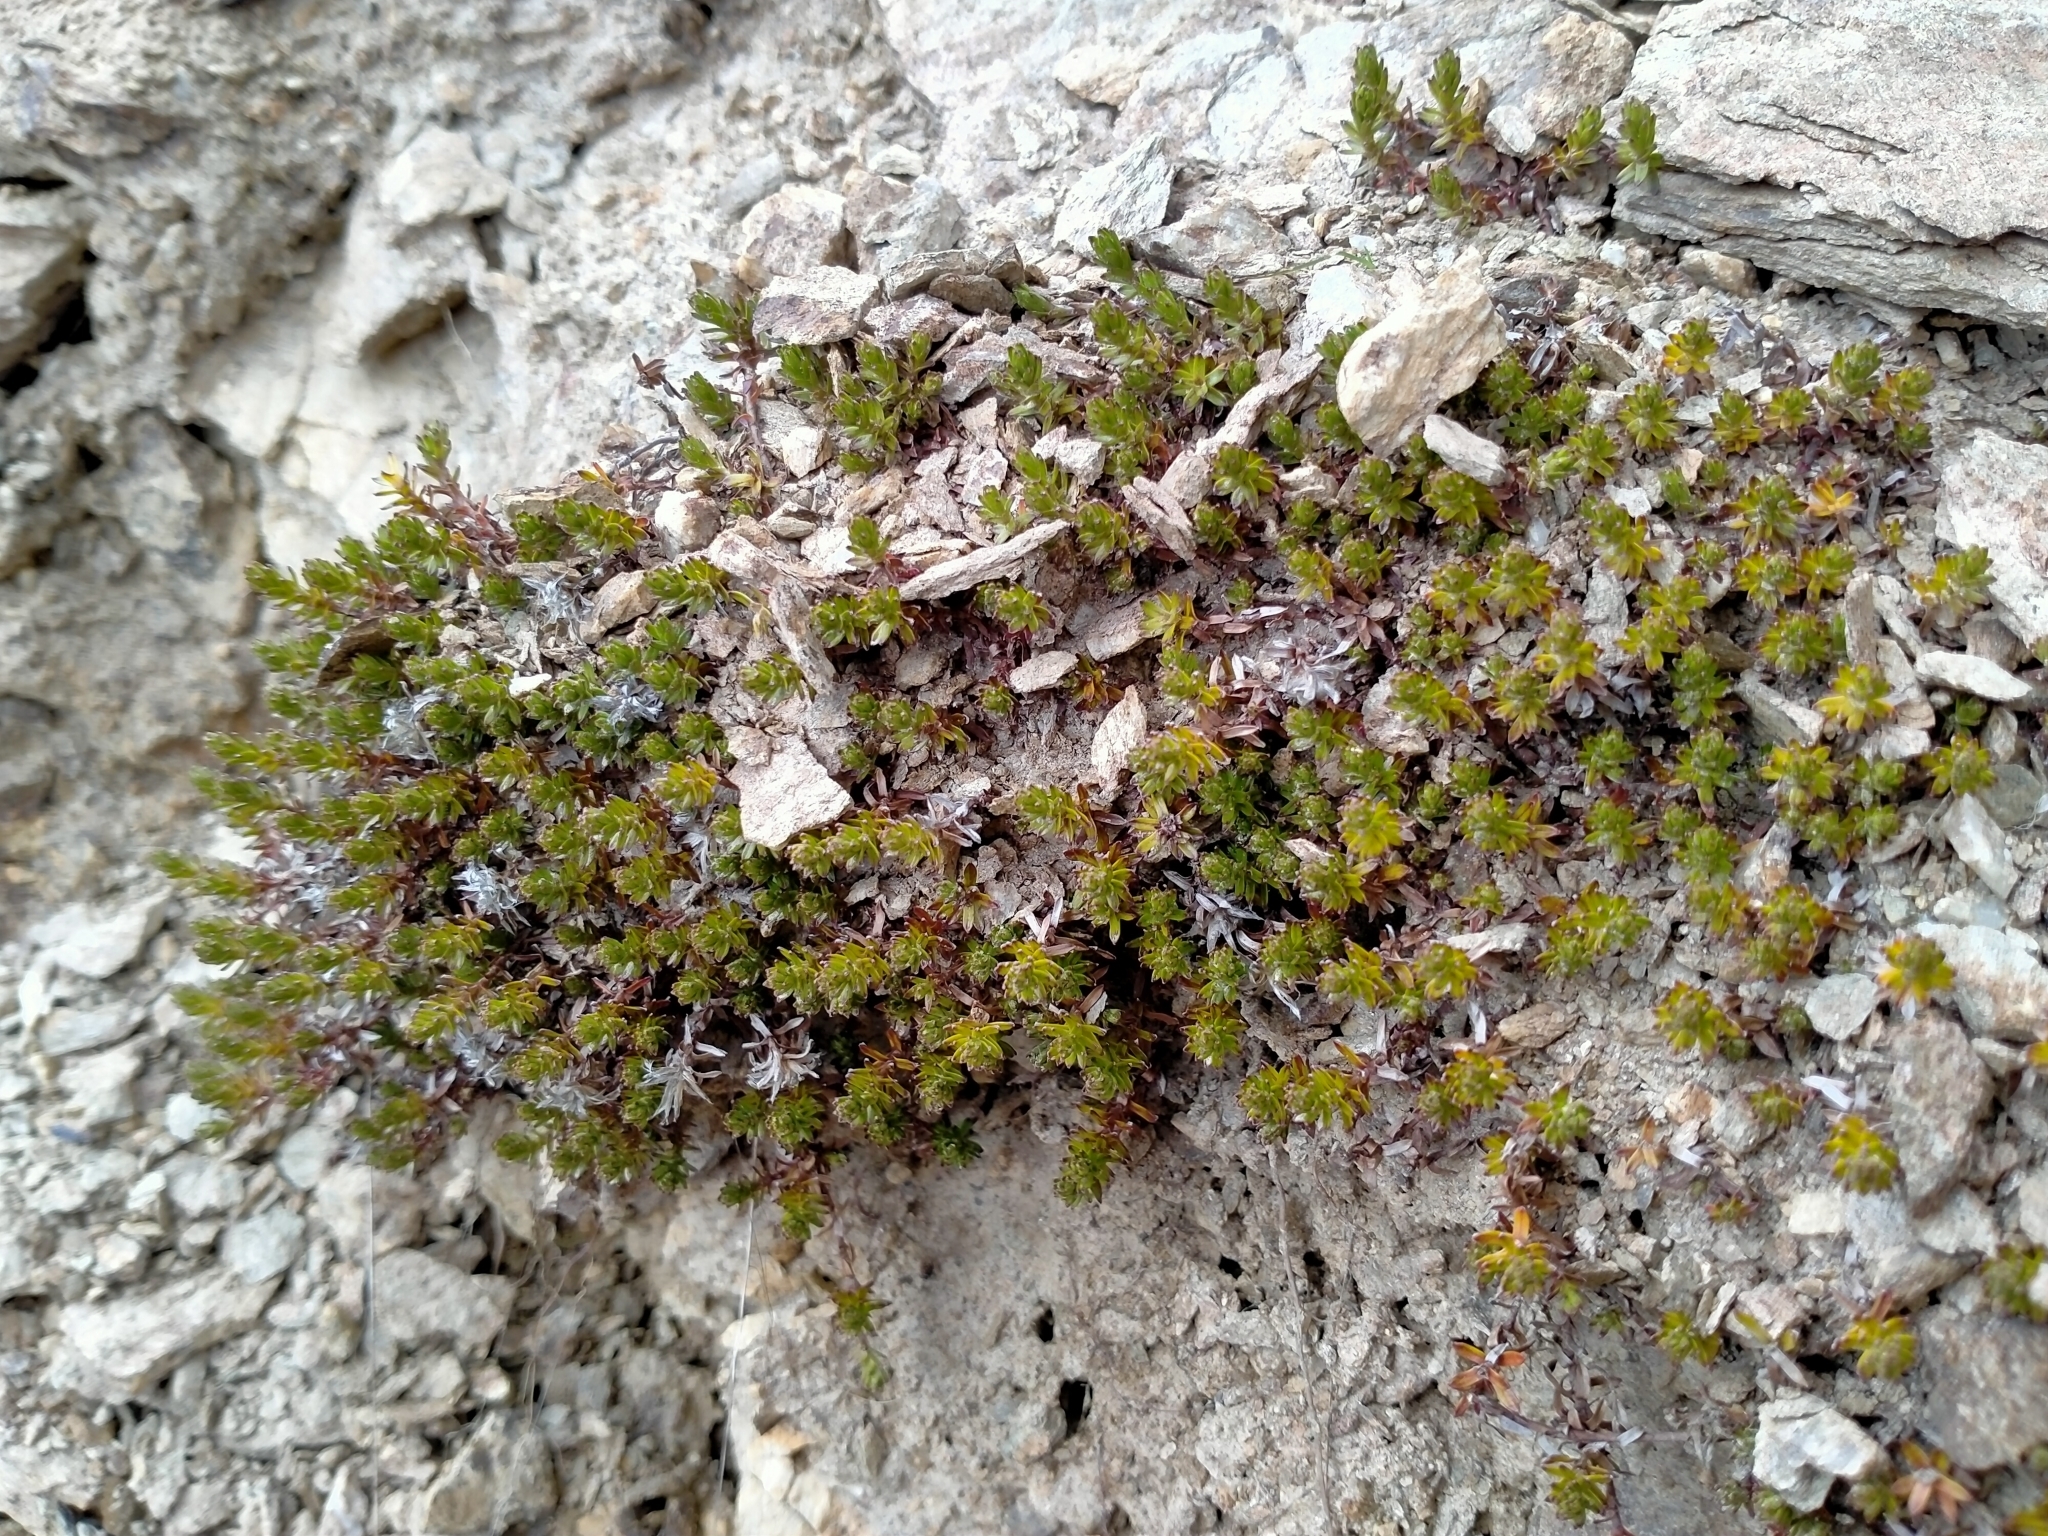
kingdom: Plantae
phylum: Tracheophyta
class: Magnoliopsida
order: Asterales
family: Asteraceae
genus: Raoulia
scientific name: Raoulia glabra
